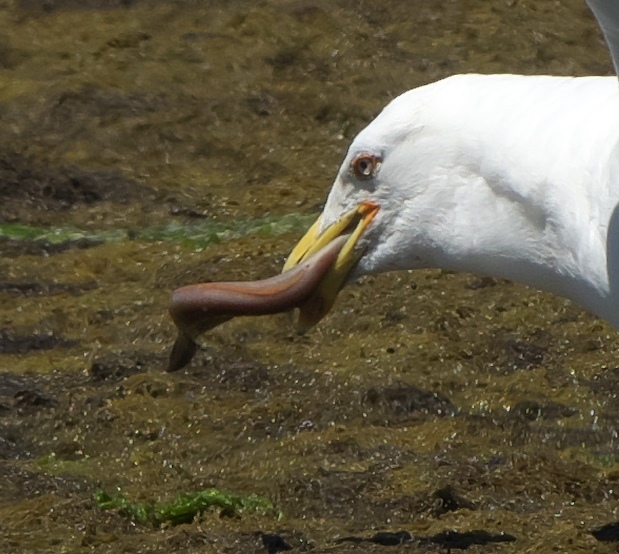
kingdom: Animalia
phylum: Chordata
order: Anguilliformes
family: Anguillidae
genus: Anguilla
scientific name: Anguilla australis
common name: Shortfin eel
